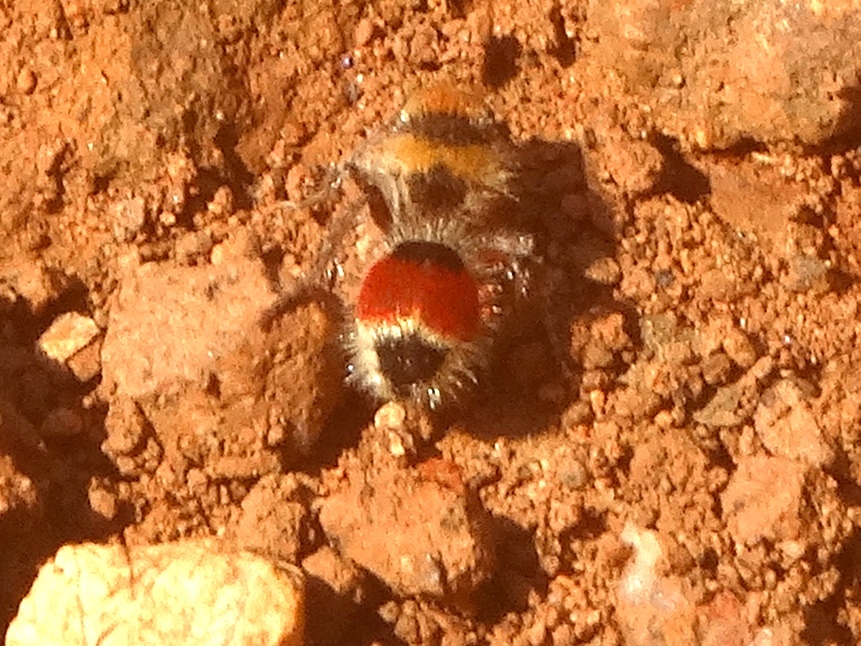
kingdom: Animalia
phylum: Arthropoda
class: Insecta
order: Hymenoptera
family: Mutillidae
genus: Dasymutilla
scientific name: Dasymutilla foxi
